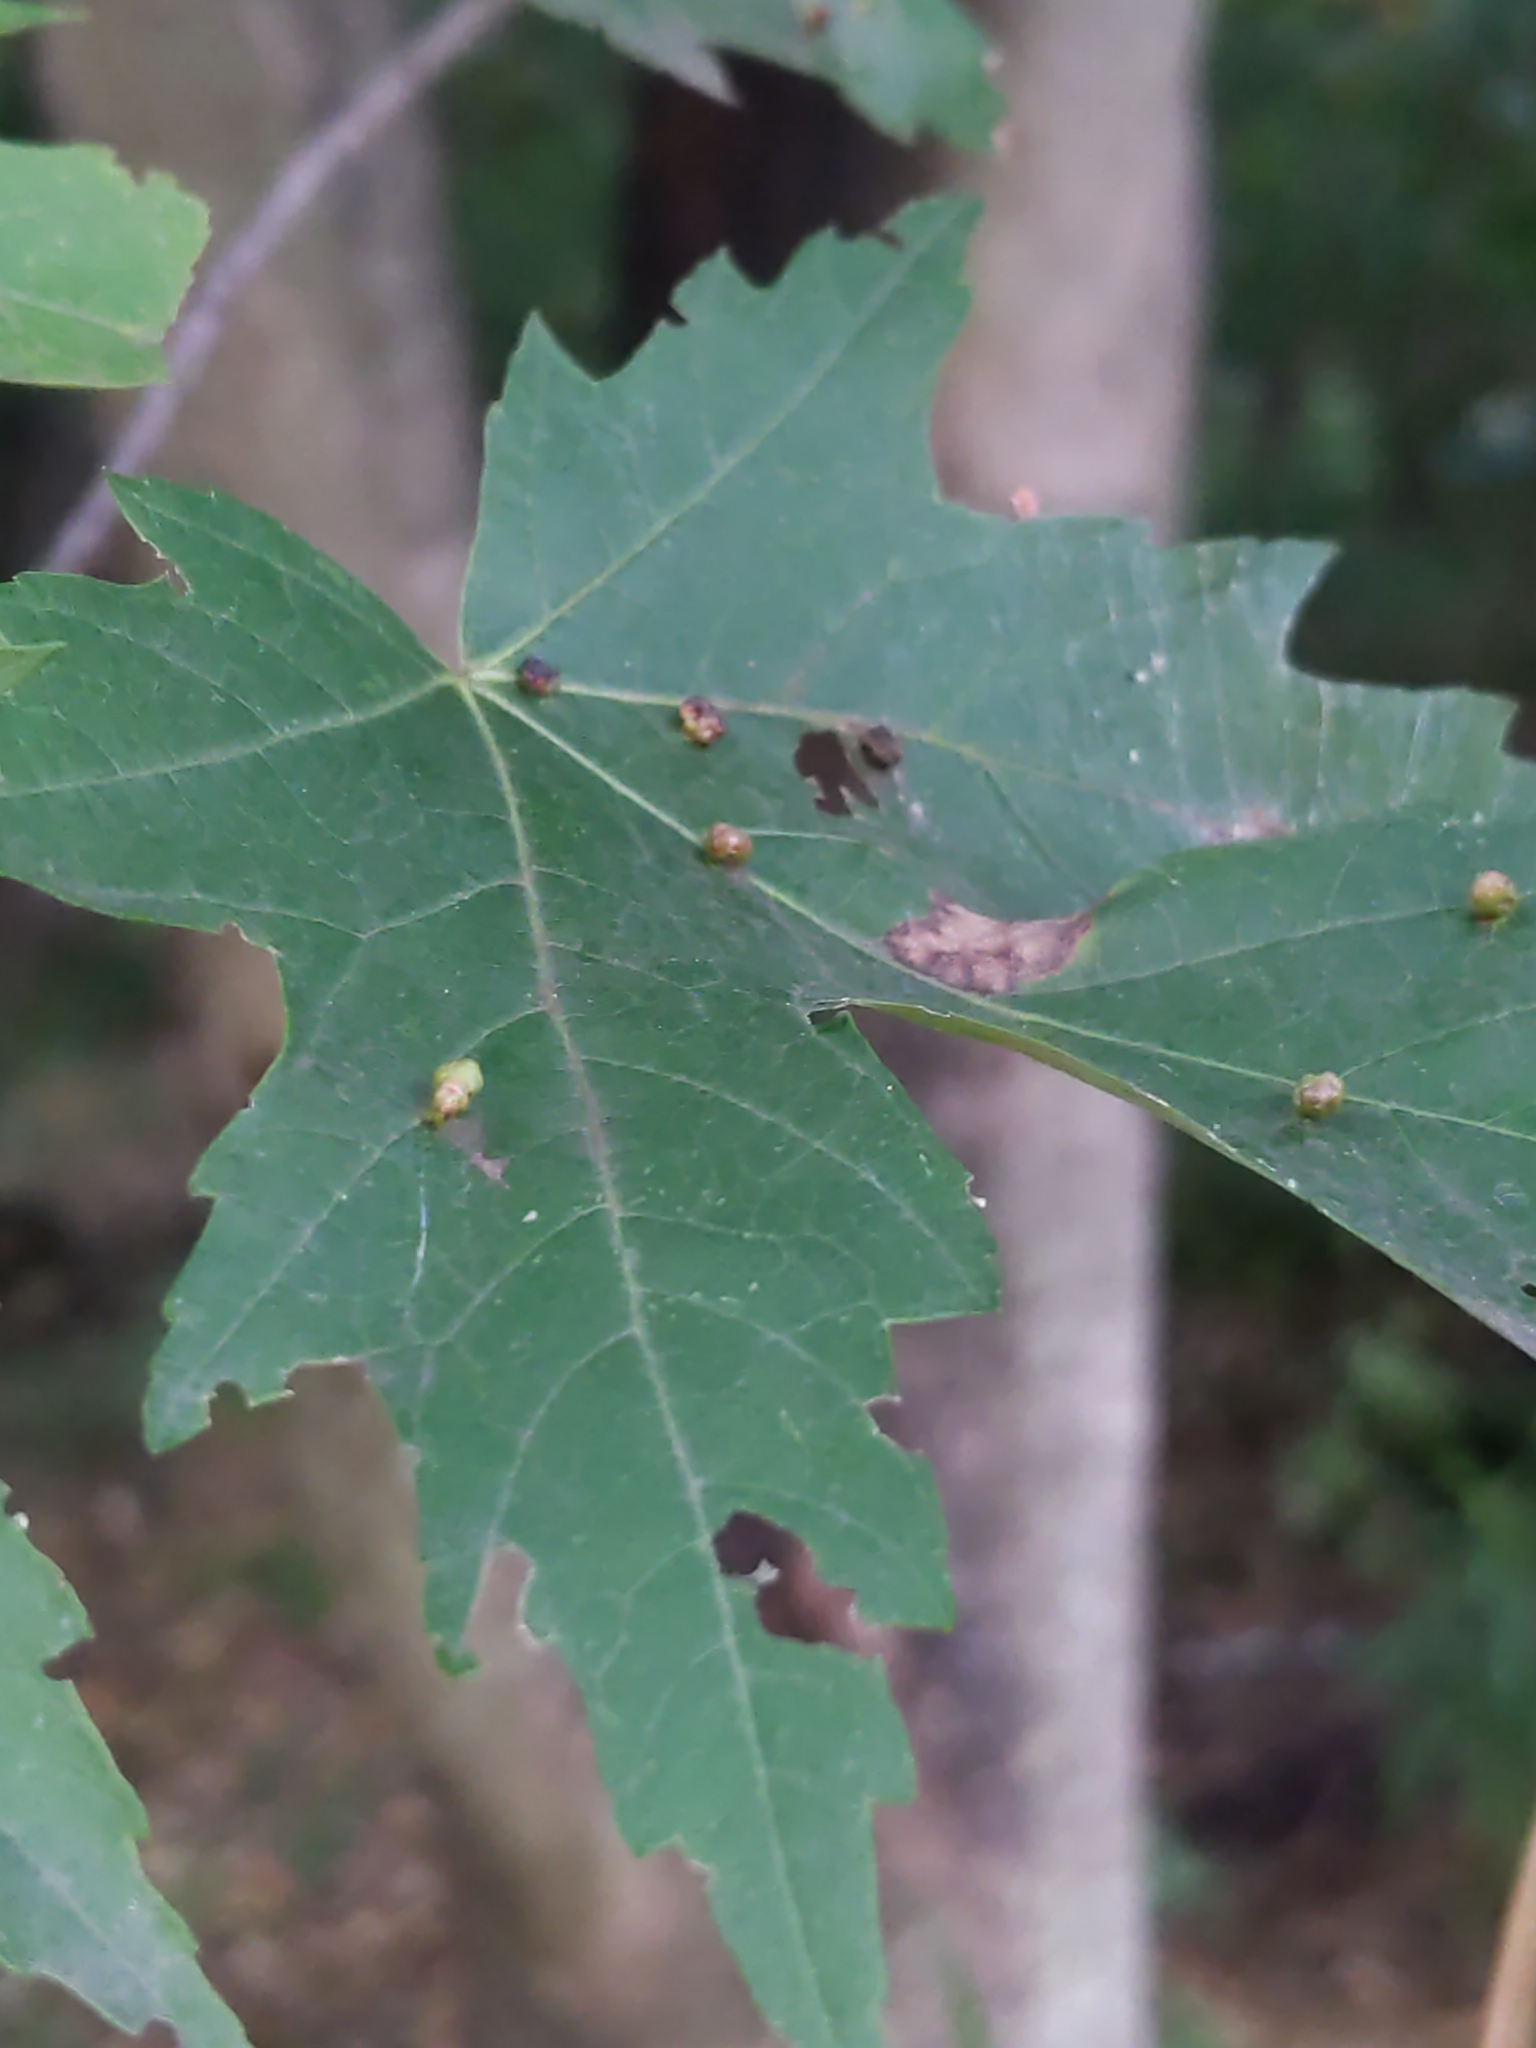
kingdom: Animalia
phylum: Arthropoda
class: Arachnida
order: Trombidiformes
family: Eriophyidae
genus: Vasates
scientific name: Vasates quadripedes
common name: Maple bladder gall mite
